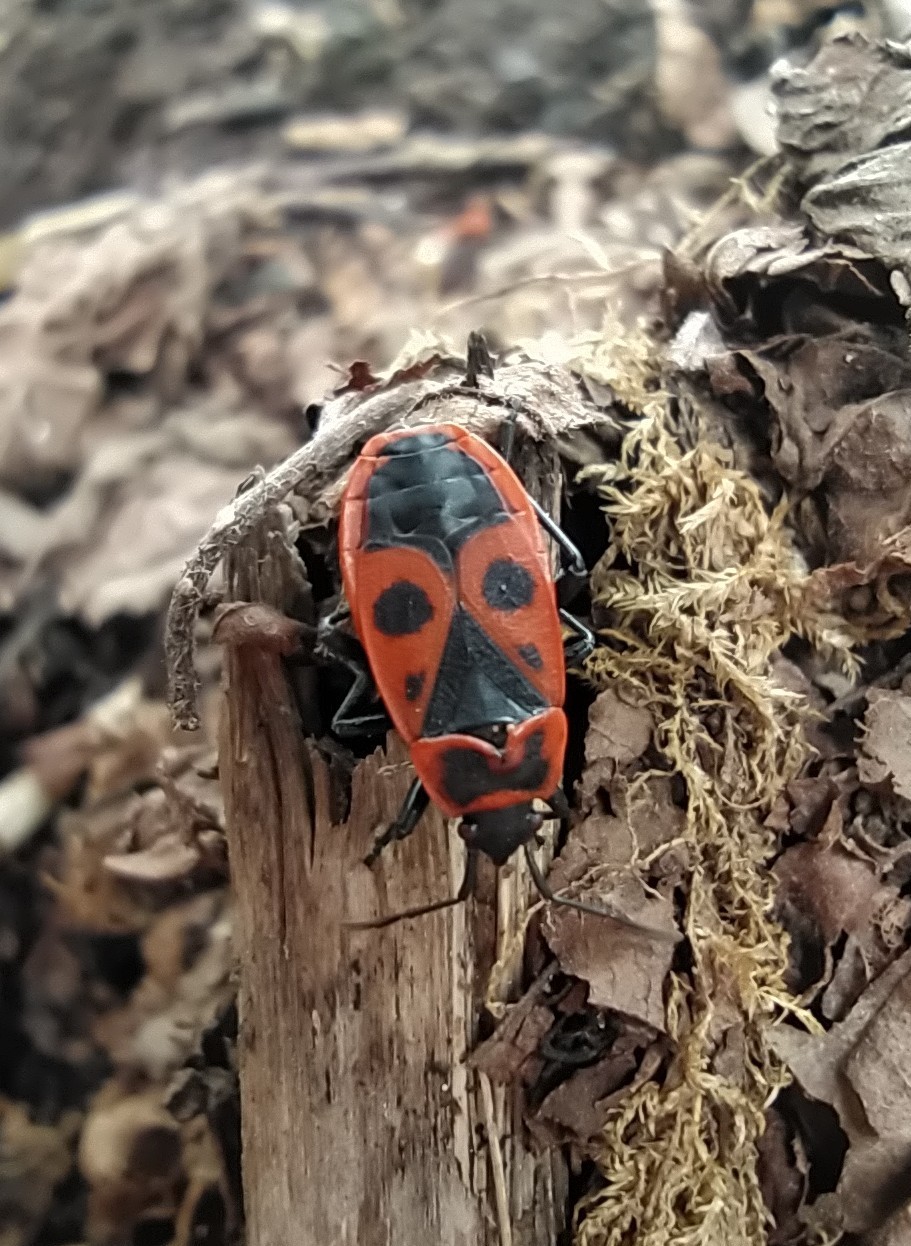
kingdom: Animalia
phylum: Arthropoda
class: Insecta
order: Hemiptera
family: Pyrrhocoridae
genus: Pyrrhocoris
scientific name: Pyrrhocoris apterus
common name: Firebug
